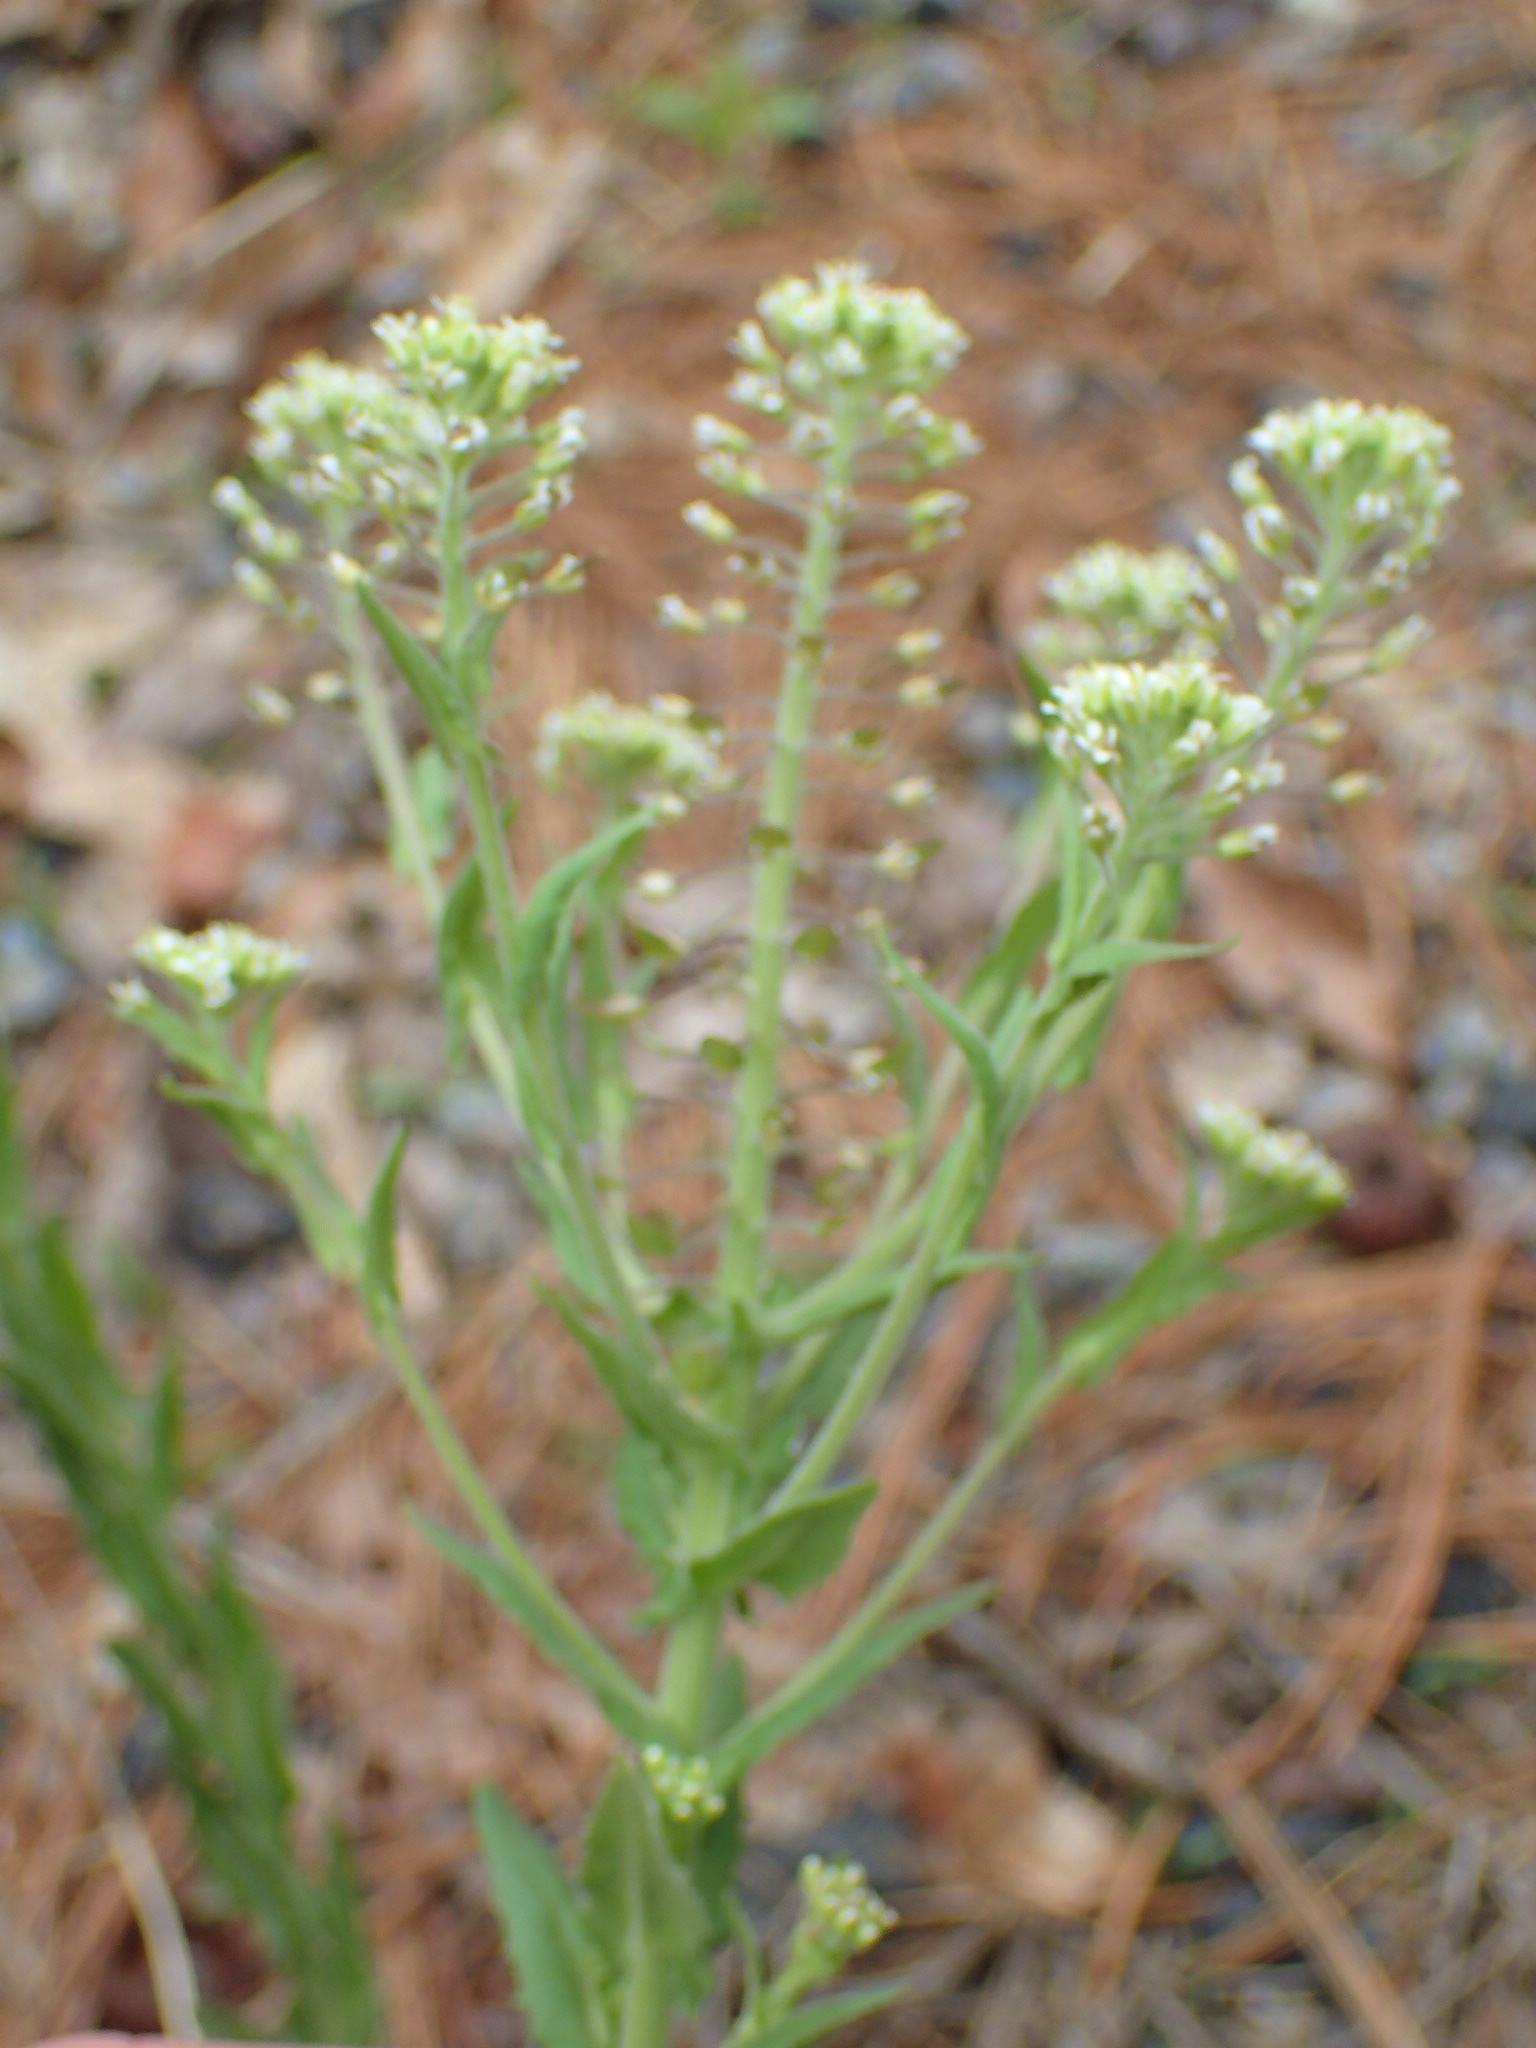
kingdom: Plantae
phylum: Tracheophyta
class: Magnoliopsida
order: Brassicales
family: Brassicaceae
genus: Lepidium
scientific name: Lepidium campestre
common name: Field pepperwort
